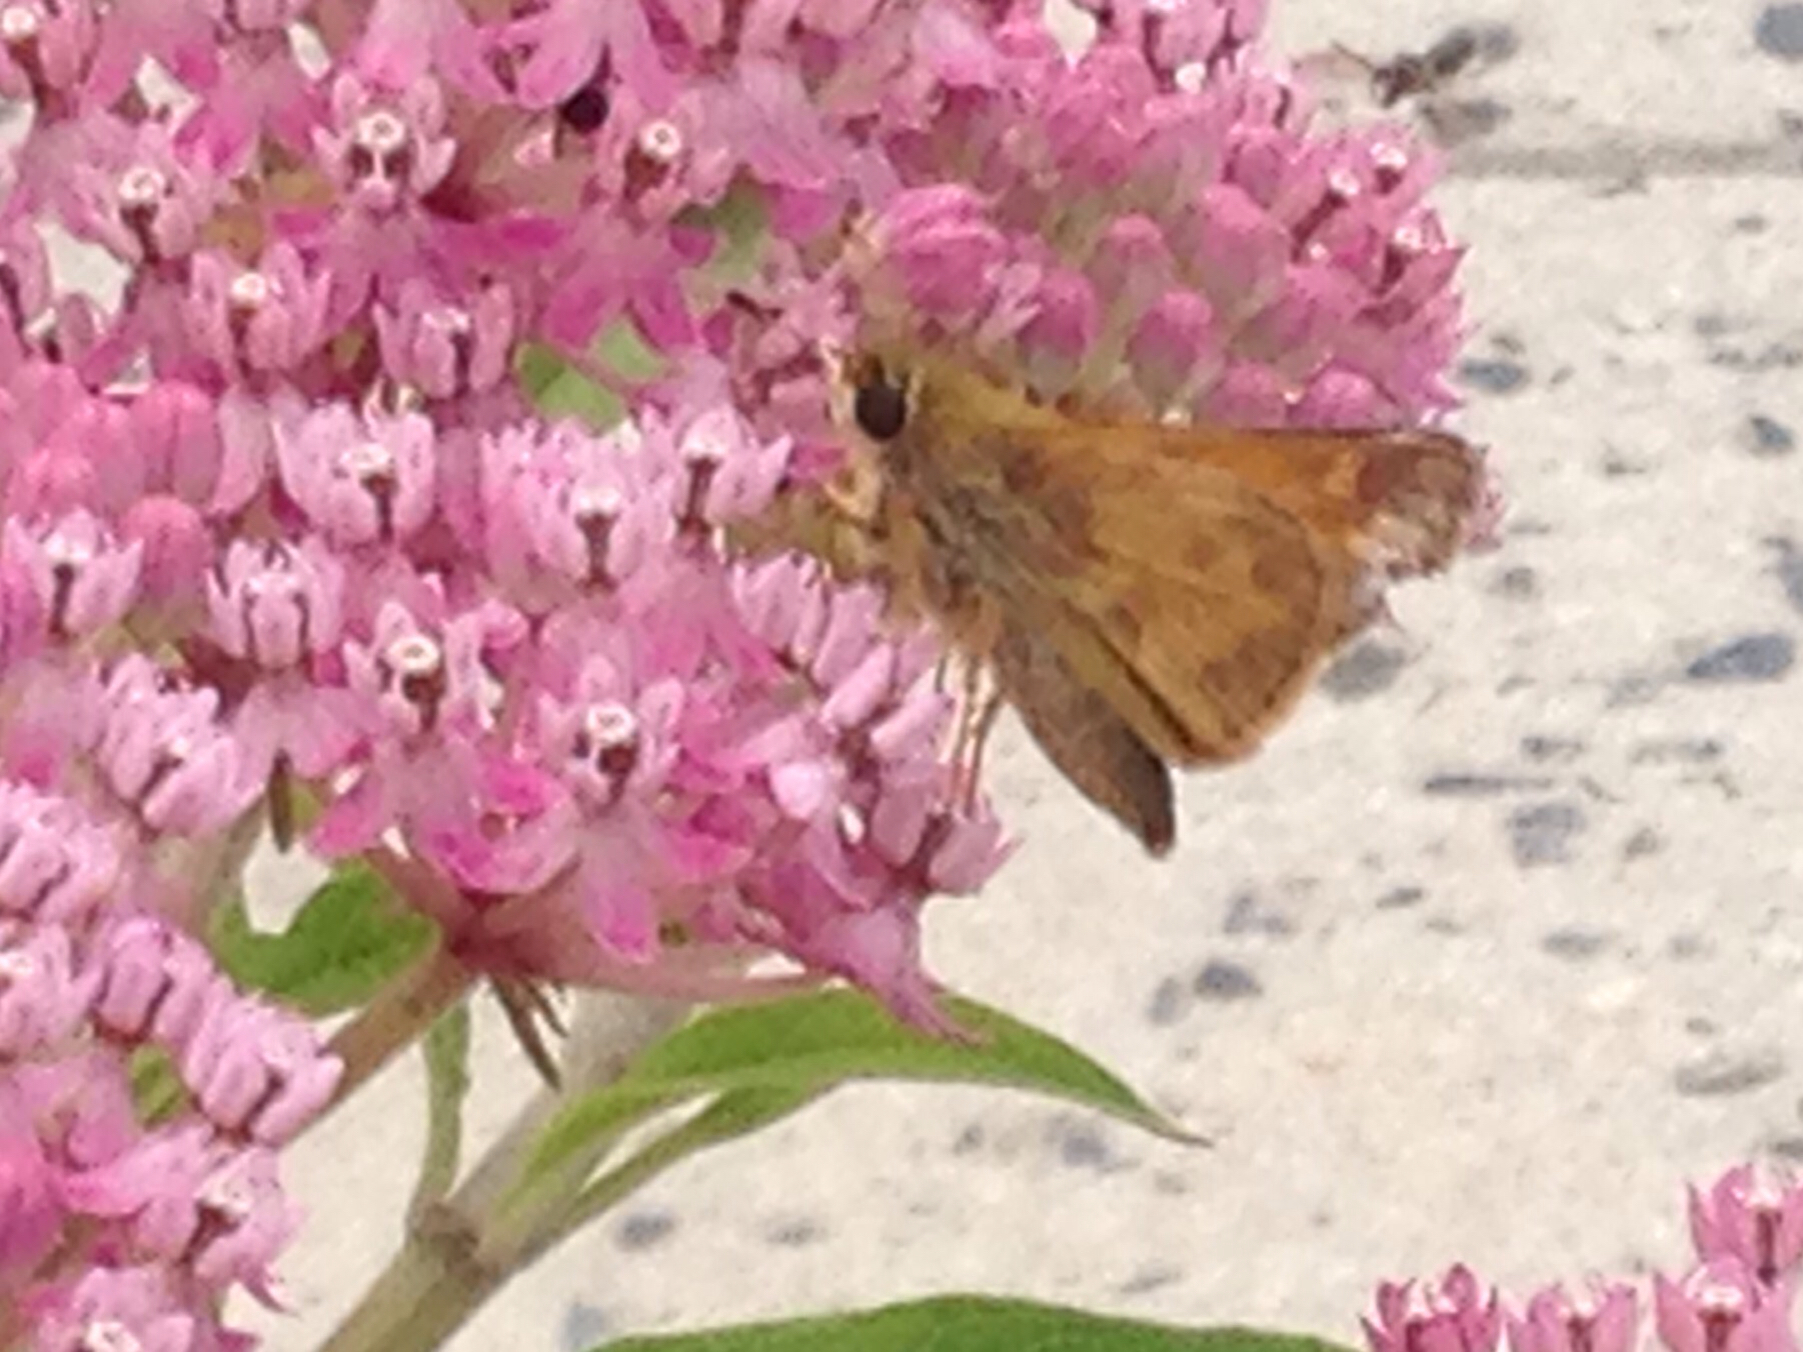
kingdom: Animalia
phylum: Arthropoda
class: Insecta
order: Lepidoptera
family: Hesperiidae
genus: Atalopedes
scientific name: Atalopedes
